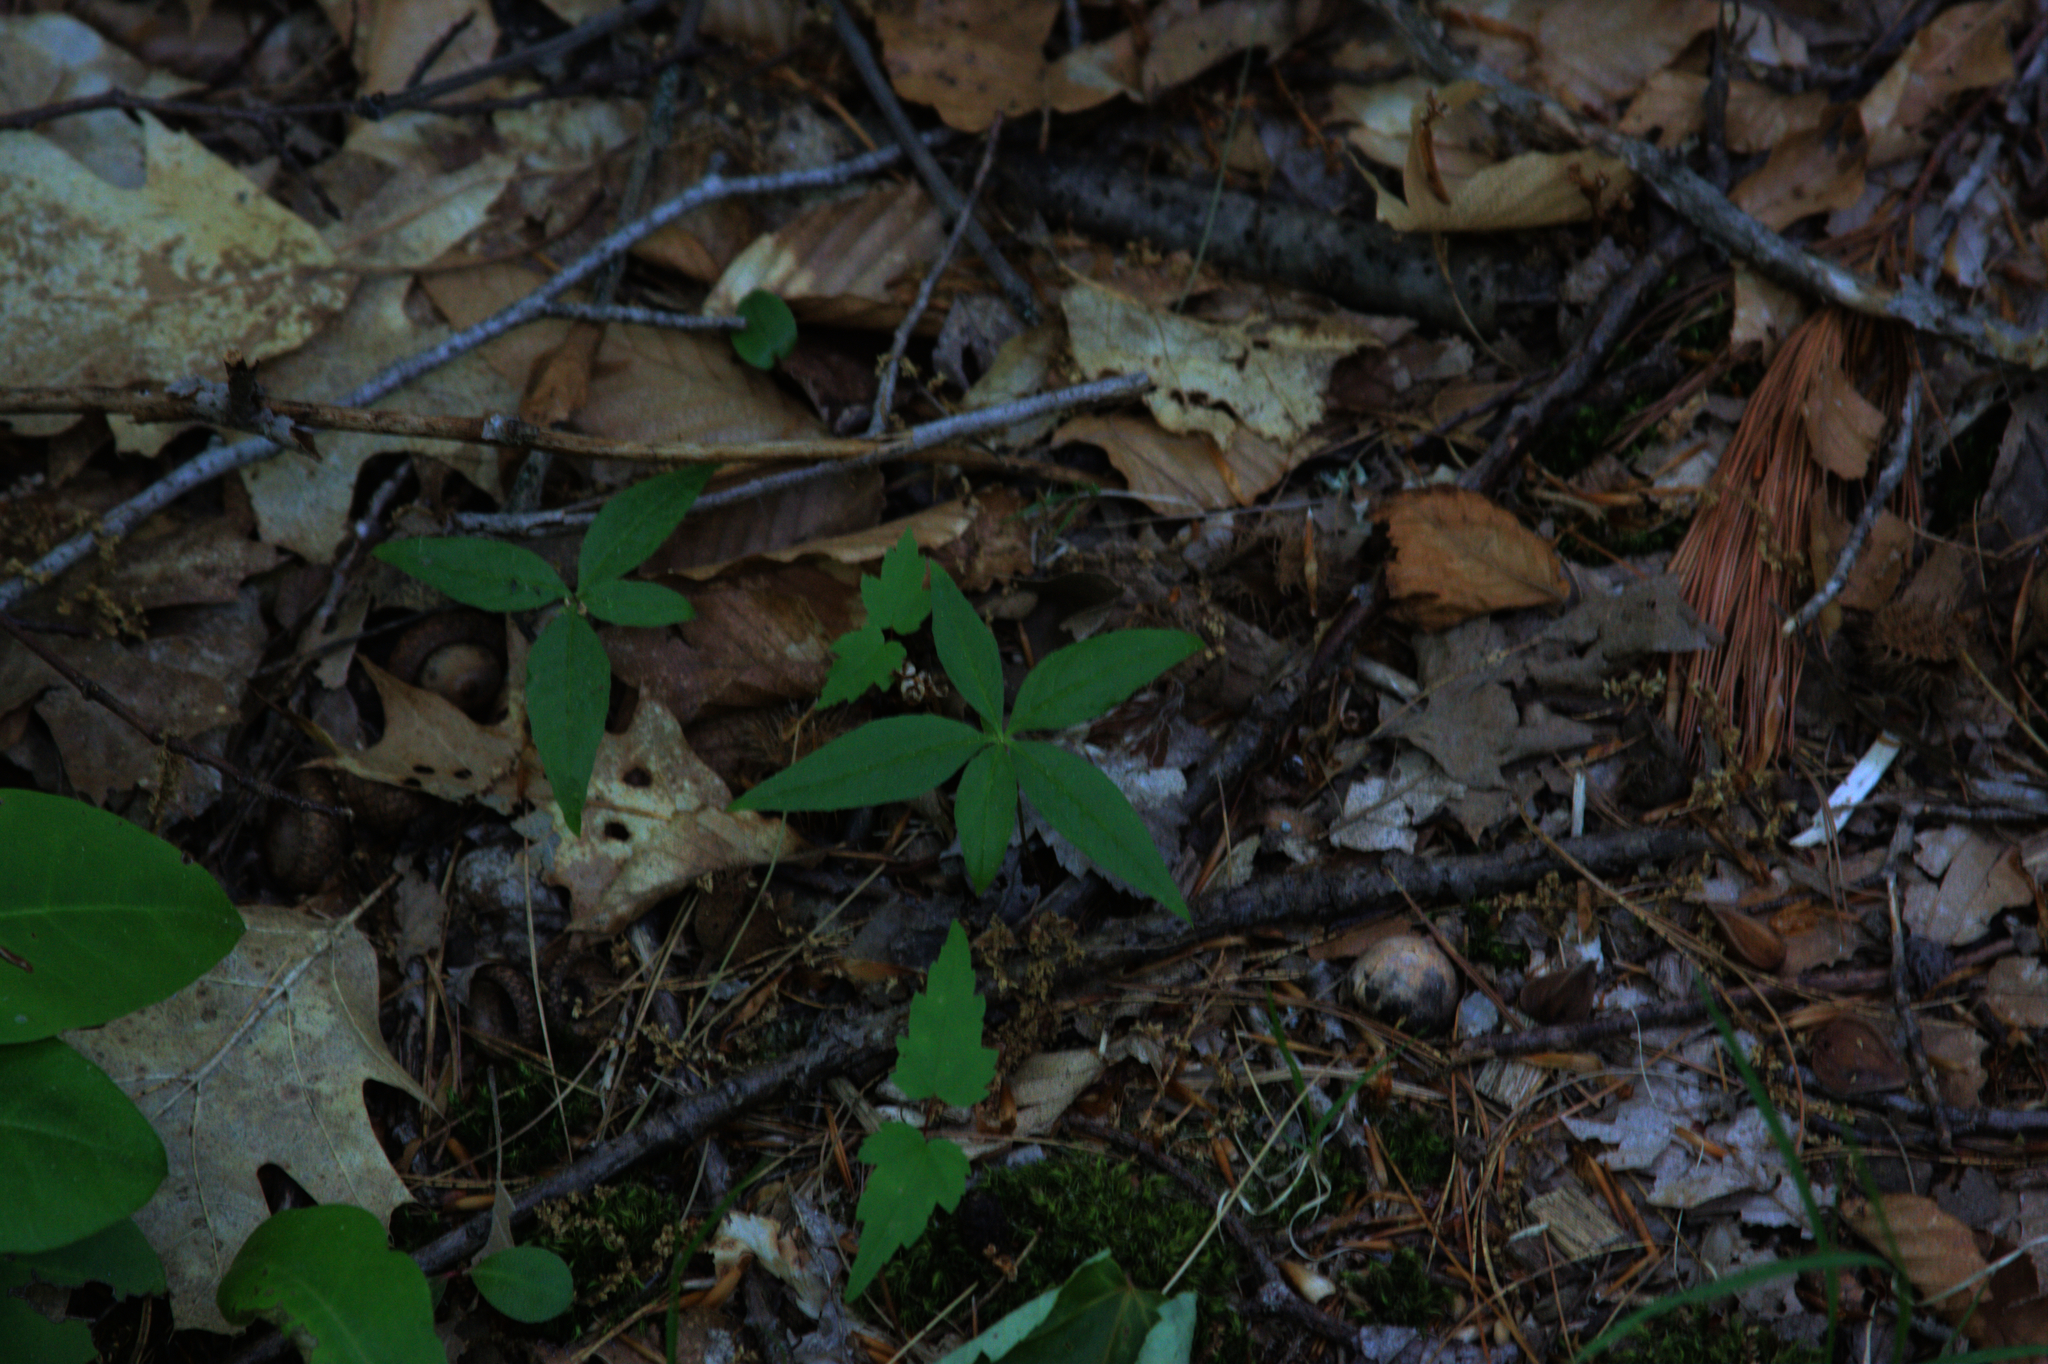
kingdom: Plantae
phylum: Tracheophyta
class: Magnoliopsida
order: Ericales
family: Primulaceae
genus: Lysimachia
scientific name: Lysimachia borealis
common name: American starflower
